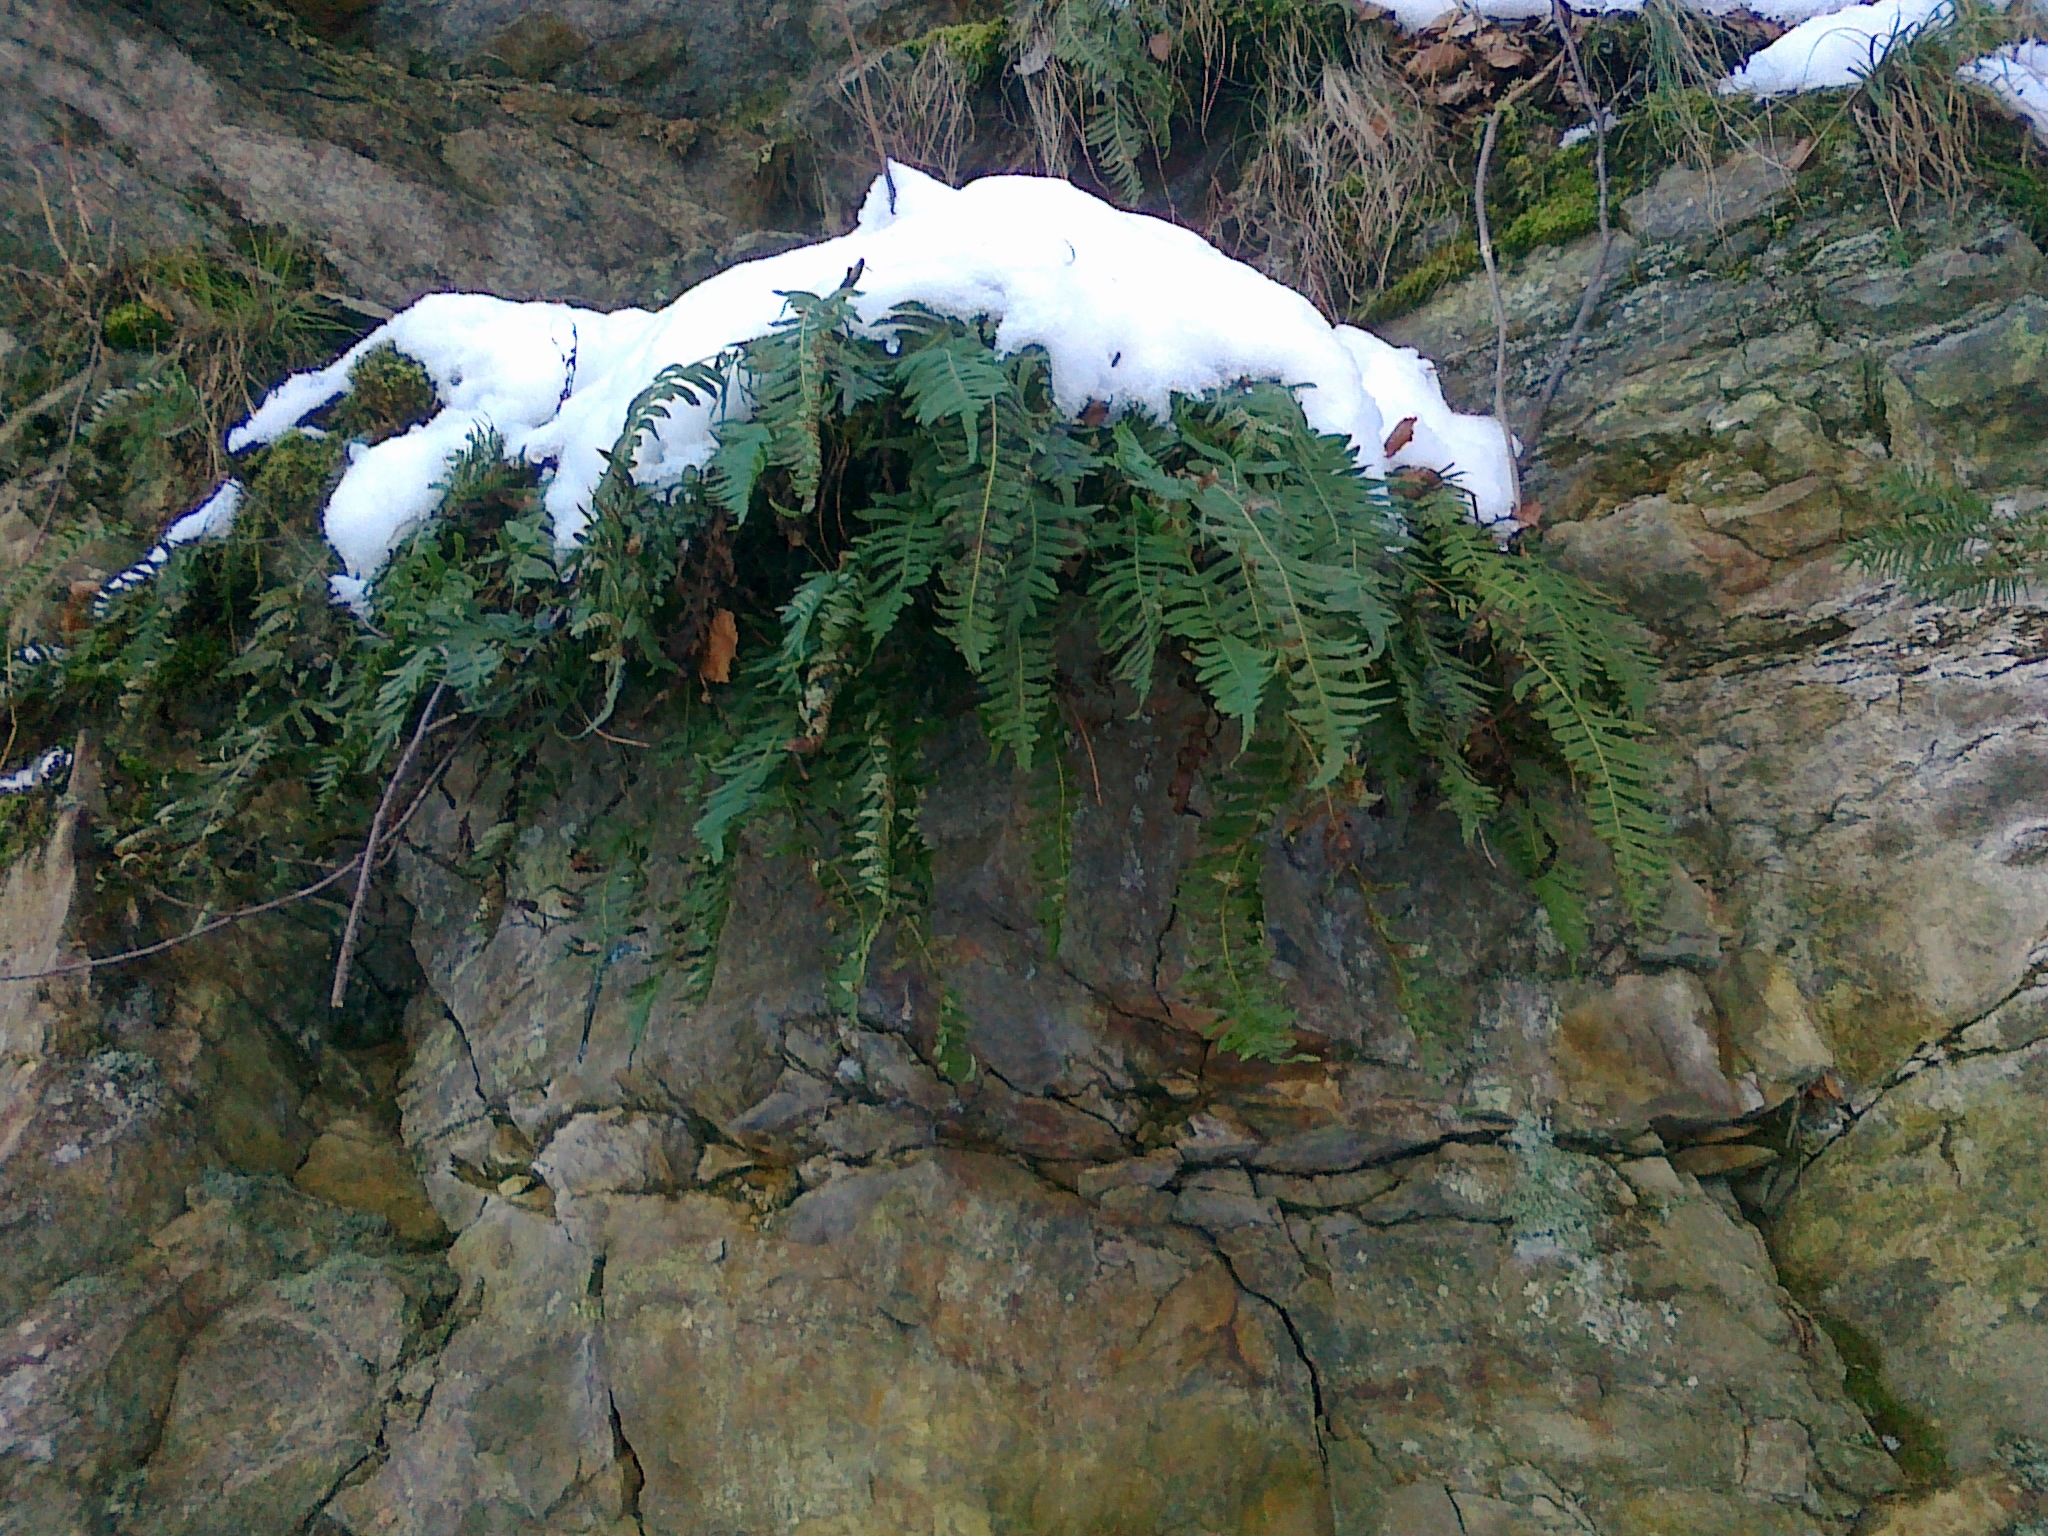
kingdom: Plantae
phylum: Tracheophyta
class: Polypodiopsida
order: Polypodiales
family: Polypodiaceae
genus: Polypodium
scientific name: Polypodium vulgare
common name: Common polypody
